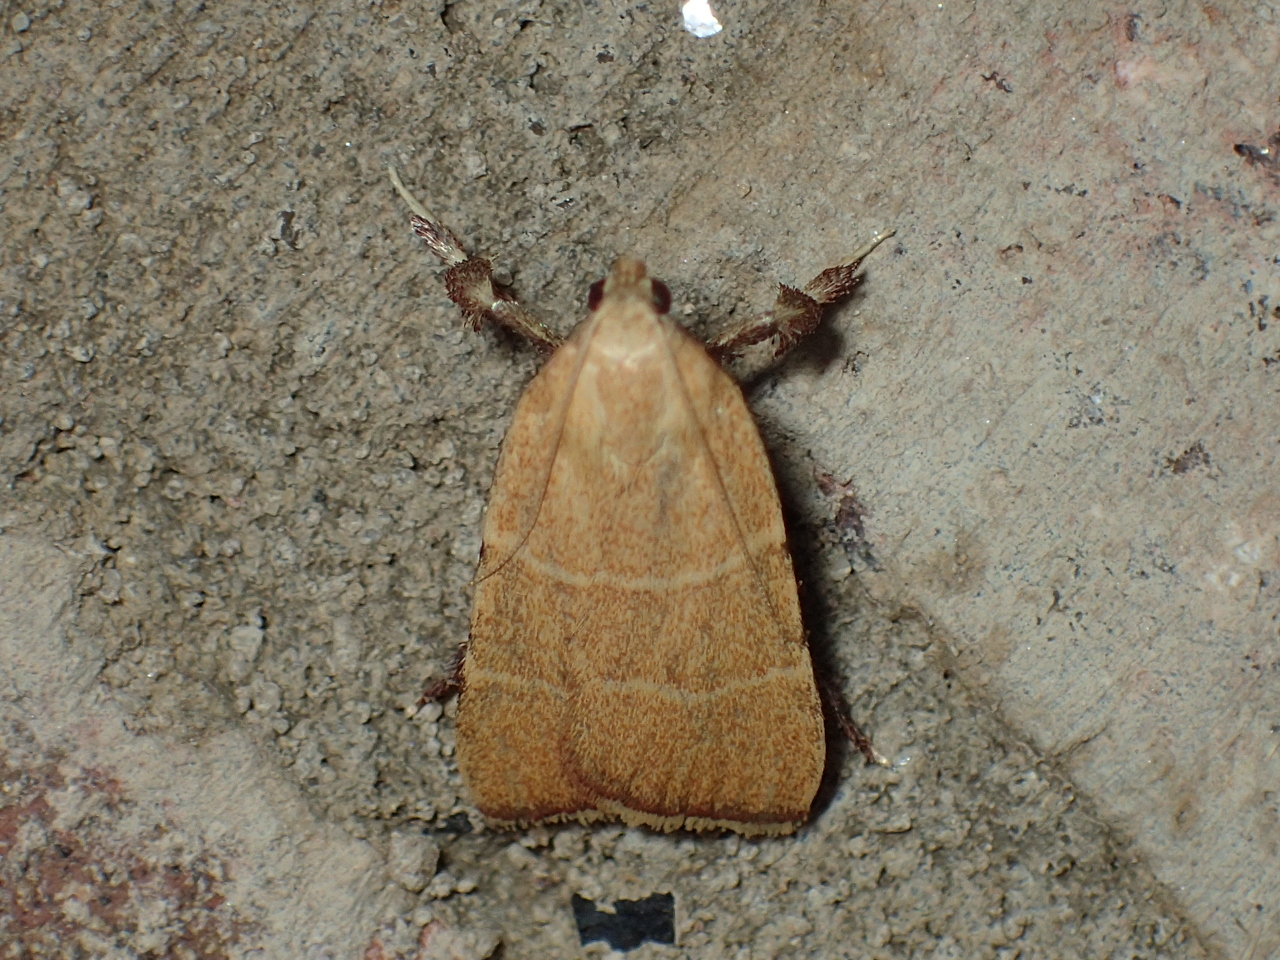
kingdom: Animalia
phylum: Arthropoda
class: Insecta
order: Lepidoptera
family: Pyralidae
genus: Parachma
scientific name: Parachma ochracealis
